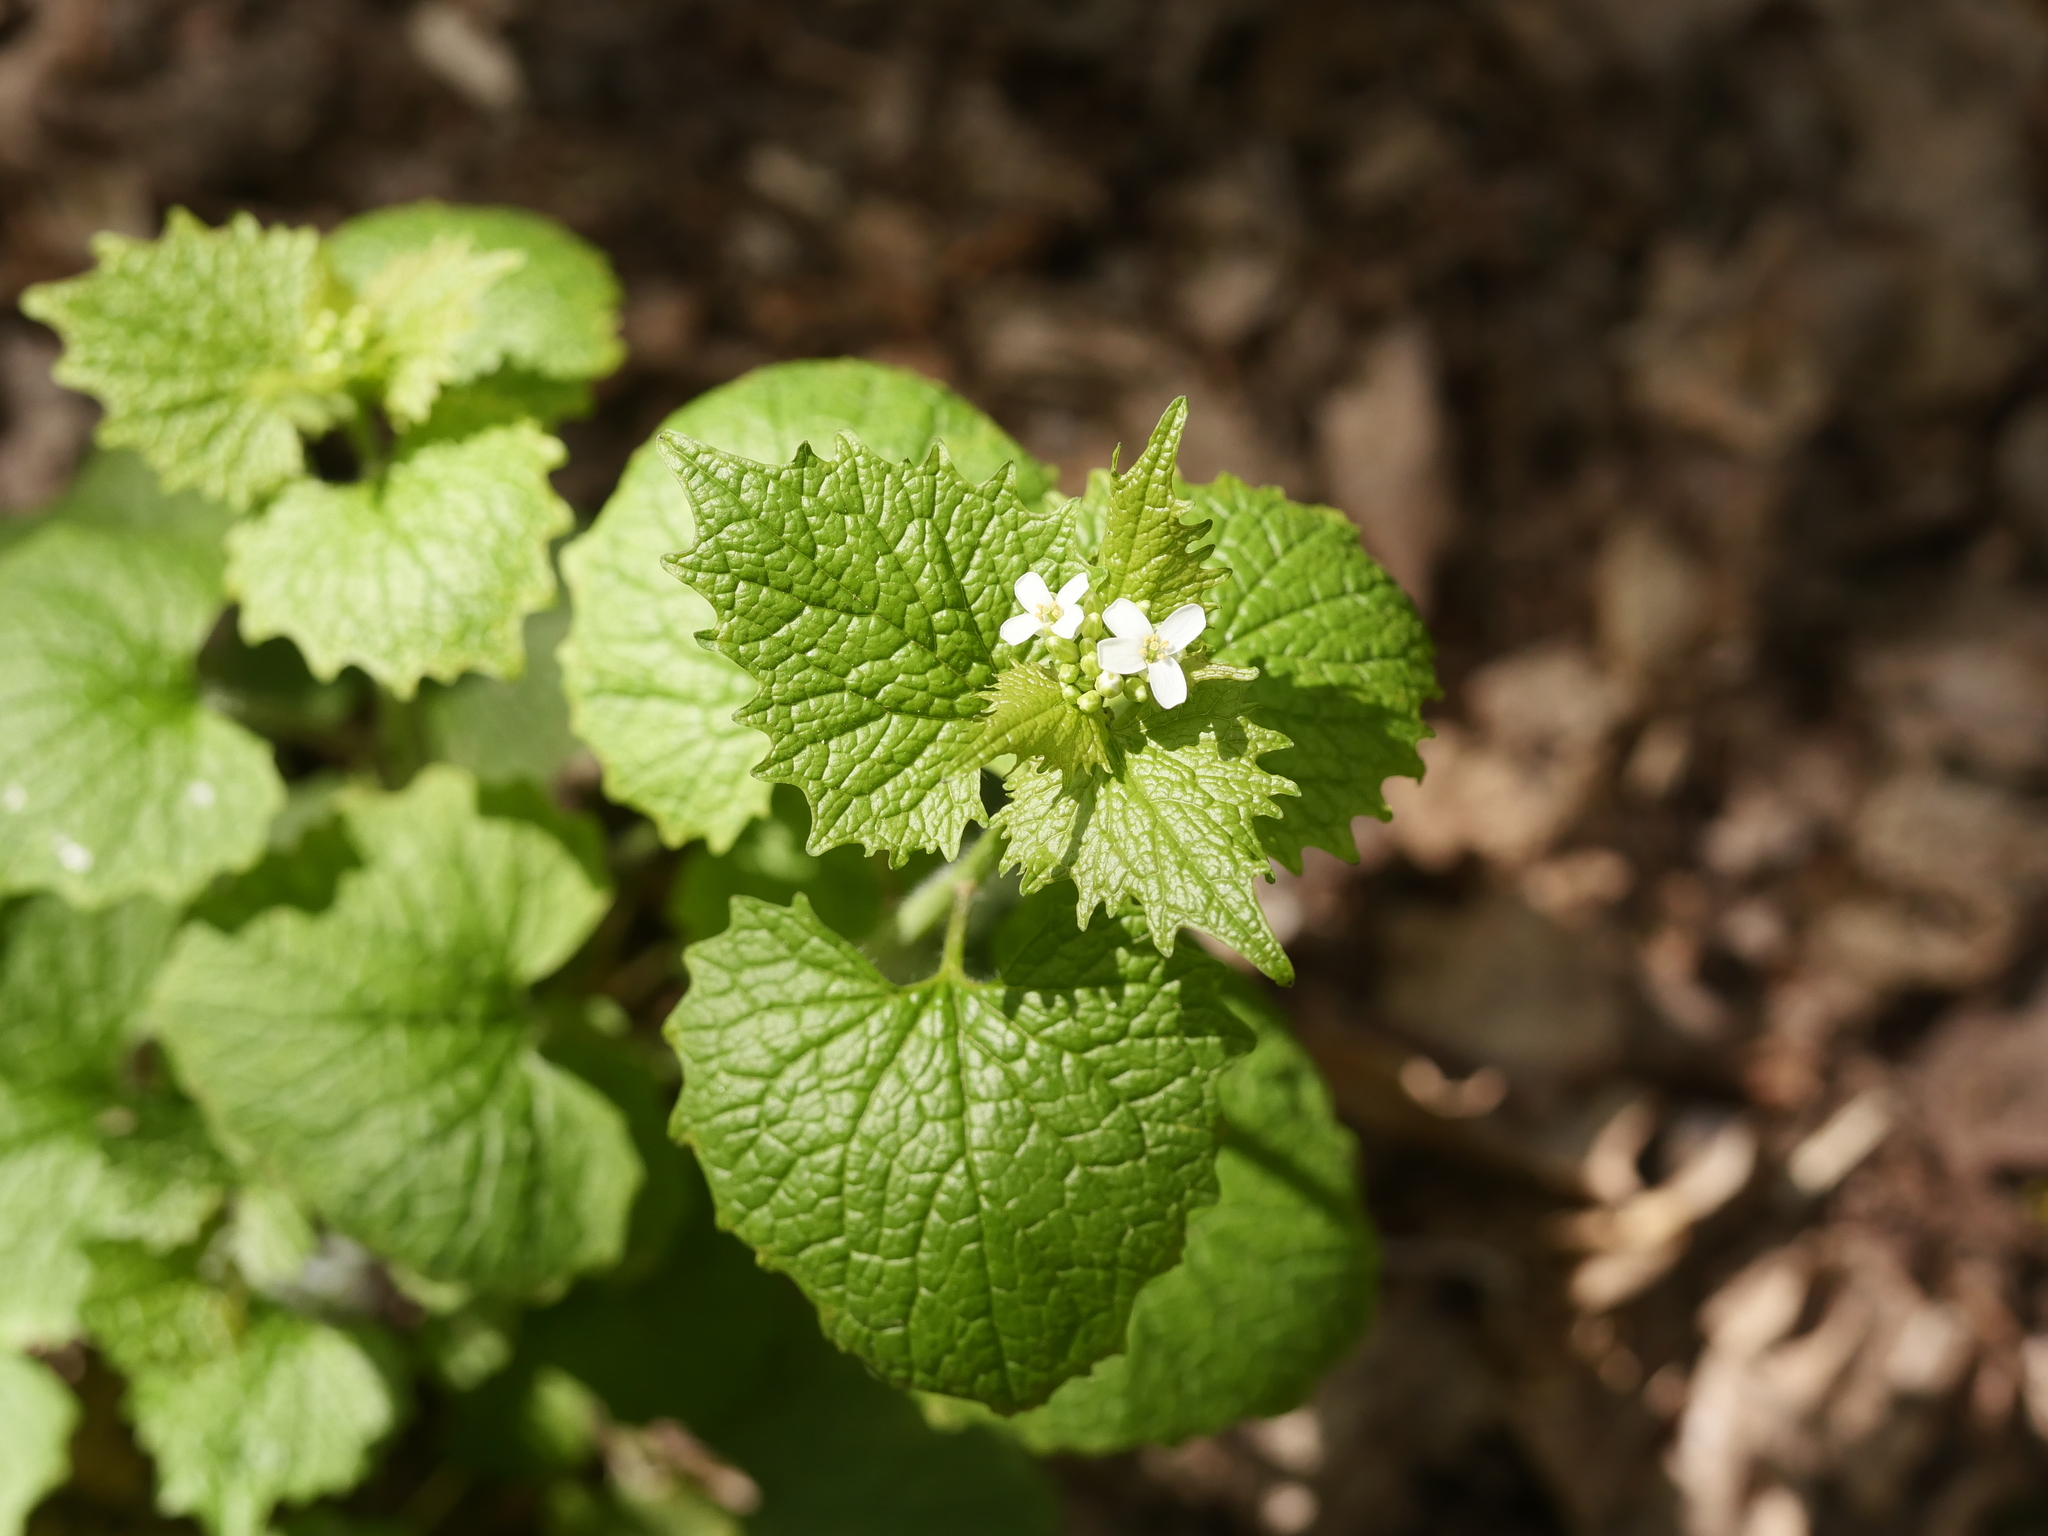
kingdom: Plantae
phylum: Tracheophyta
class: Magnoliopsida
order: Brassicales
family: Brassicaceae
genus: Alliaria
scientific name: Alliaria petiolata
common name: Garlic mustard
